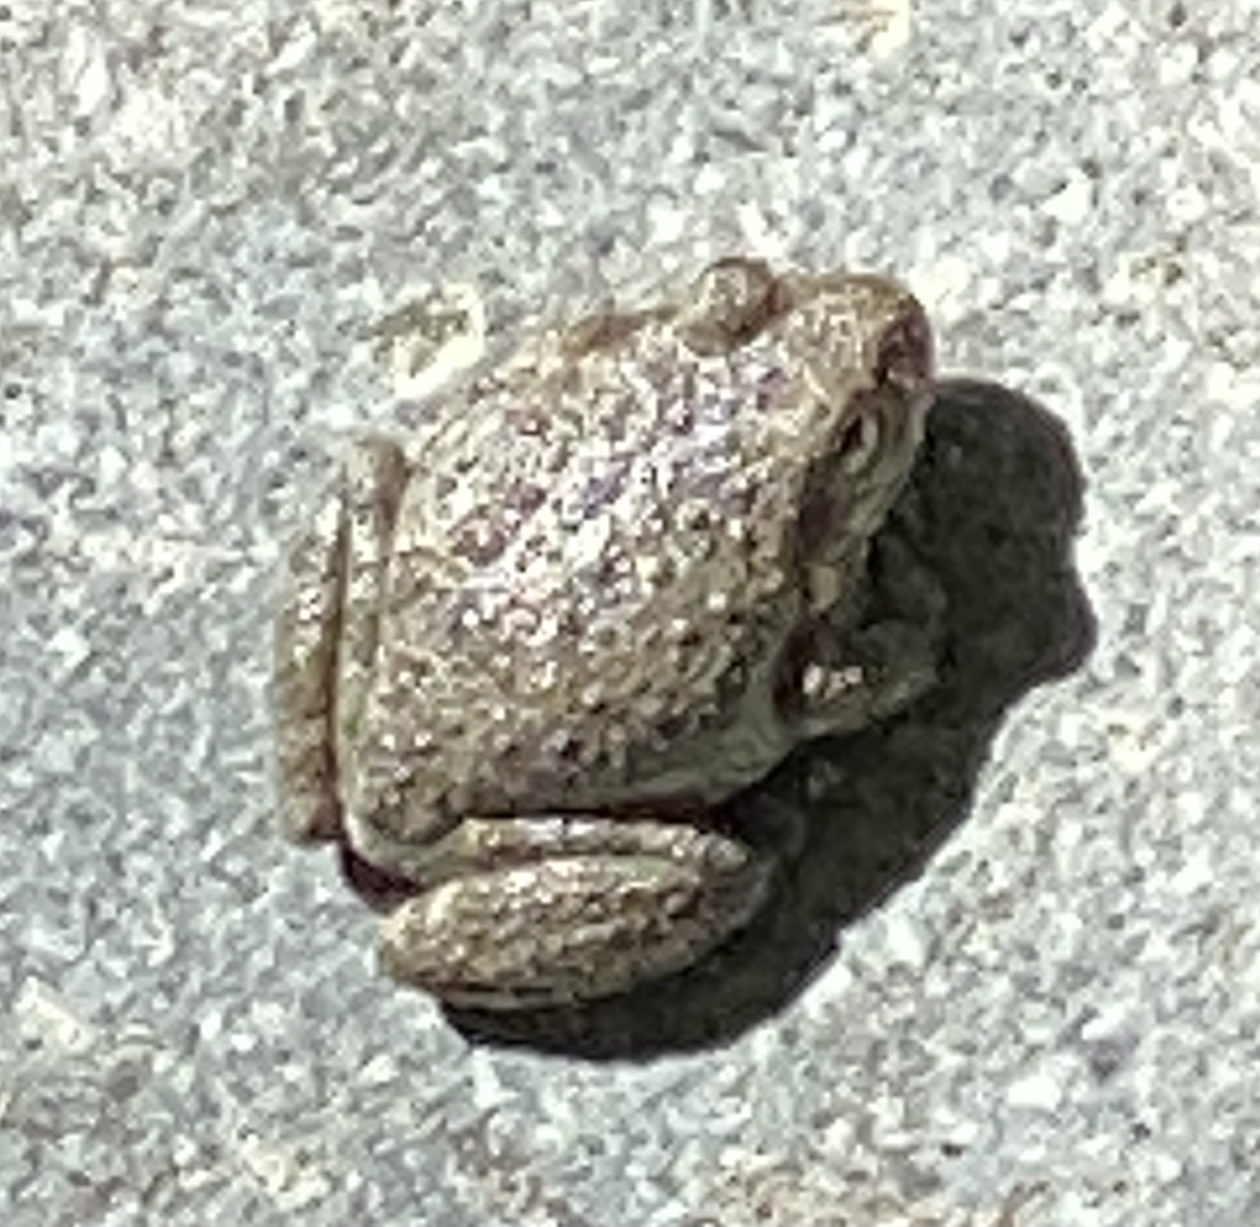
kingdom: Animalia
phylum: Chordata
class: Amphibia
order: Anura
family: Hylidae
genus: Pseudacris
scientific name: Pseudacris cadaverina
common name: California chorus frog
